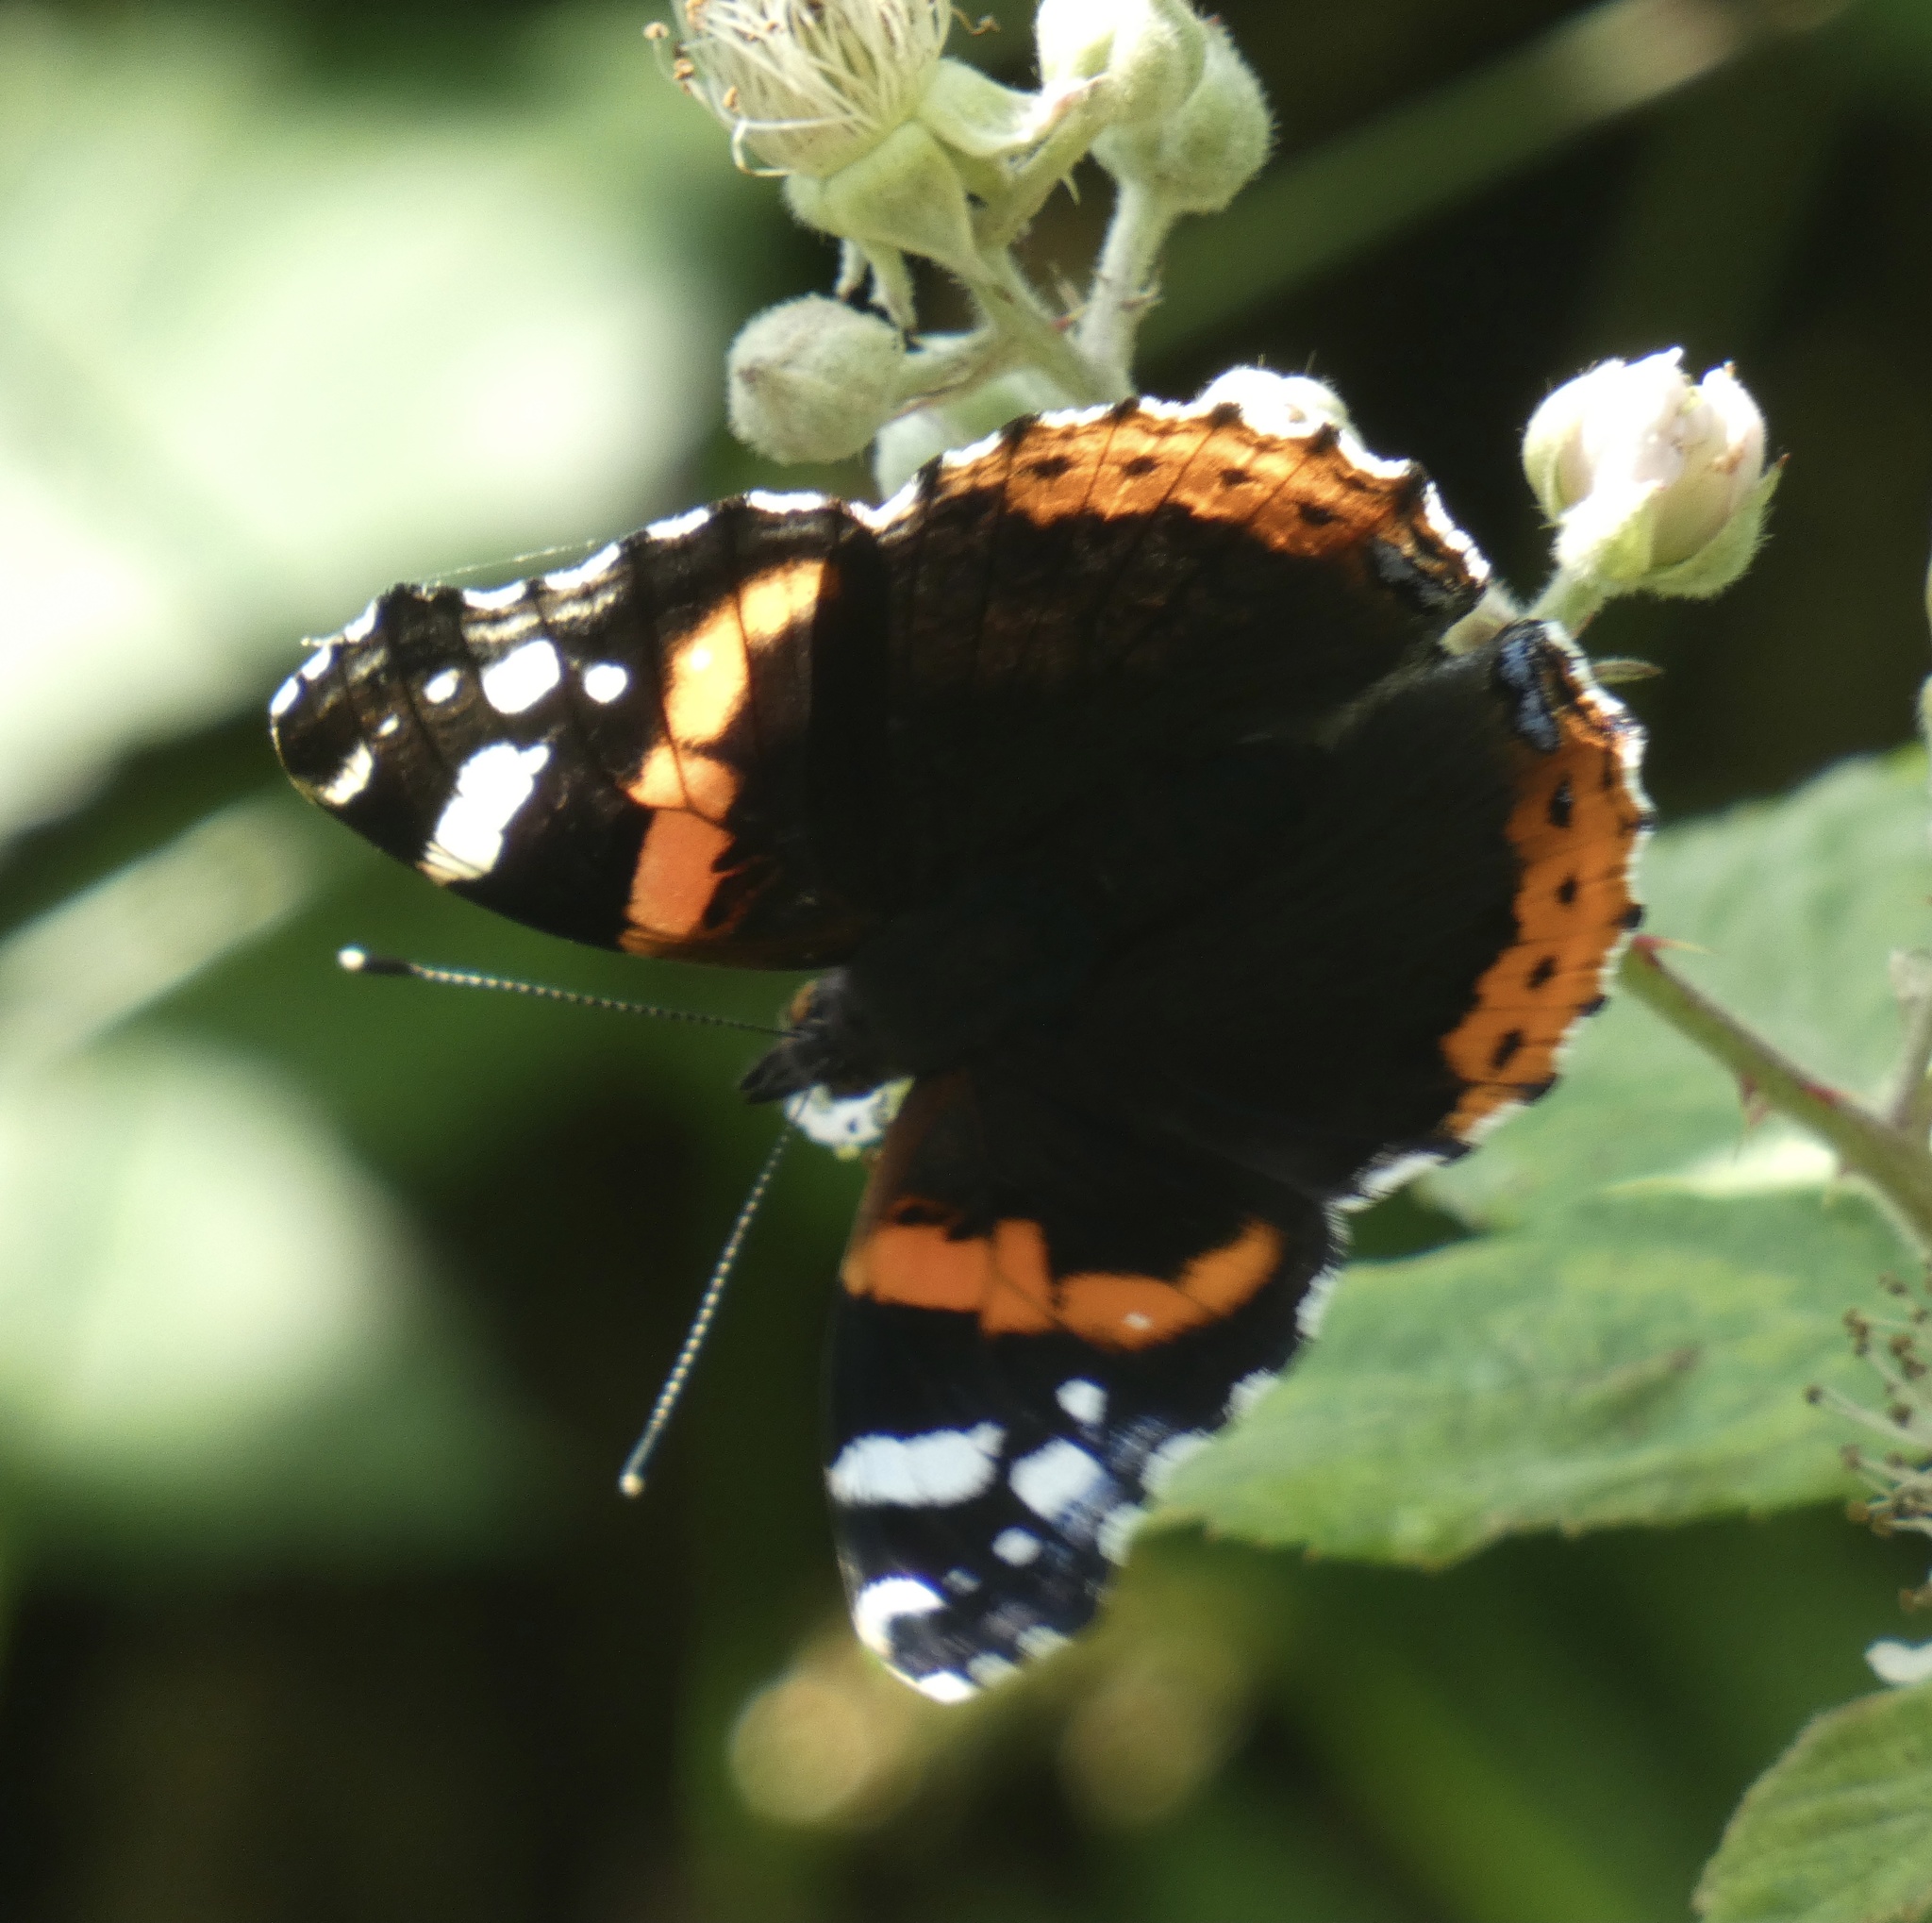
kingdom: Animalia
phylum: Arthropoda
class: Insecta
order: Lepidoptera
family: Nymphalidae
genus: Vanessa
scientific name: Vanessa atalanta
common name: Red admiral
